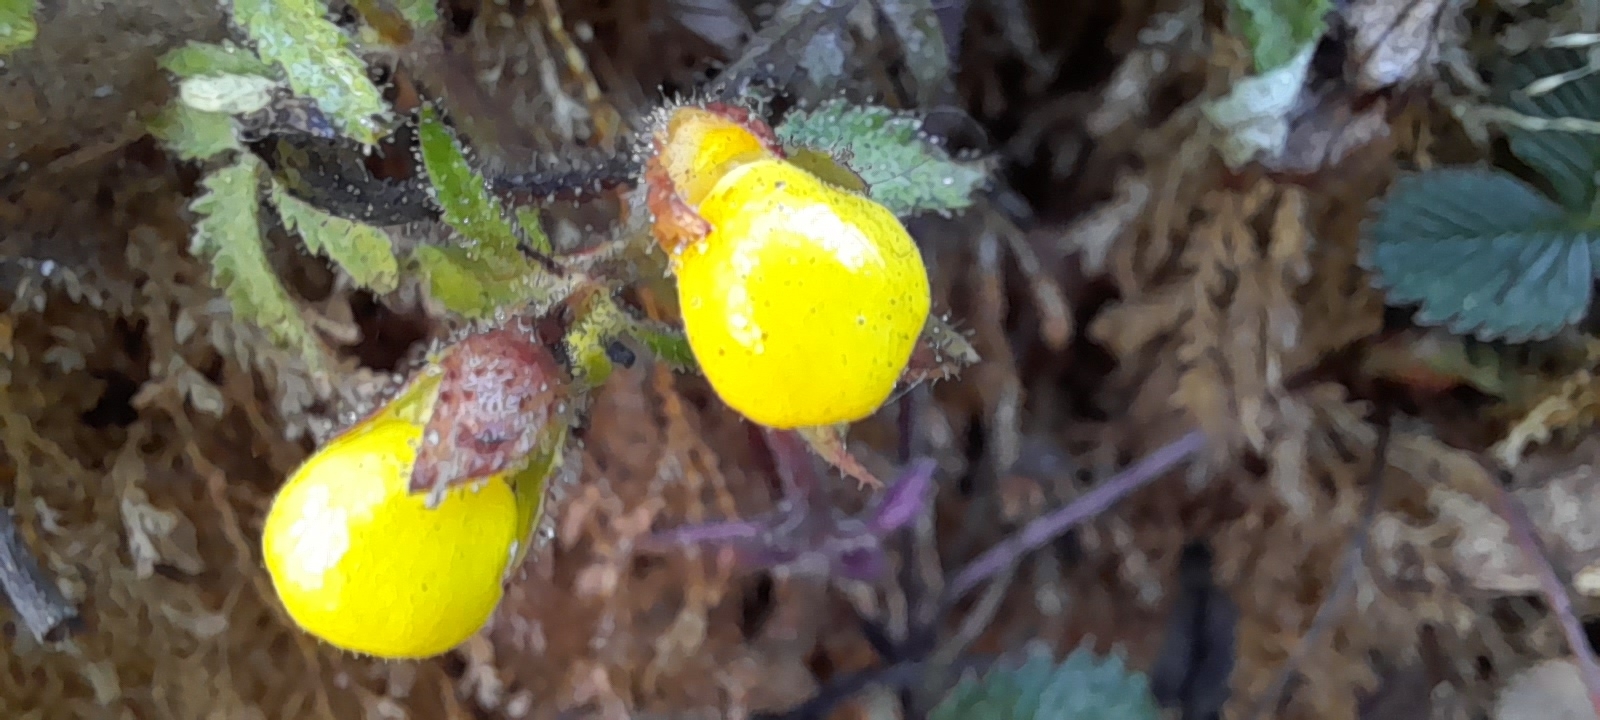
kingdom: Plantae
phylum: Tracheophyta
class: Magnoliopsida
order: Lamiales
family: Calceolariaceae
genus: Calceolaria
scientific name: Calceolaria tripartita
